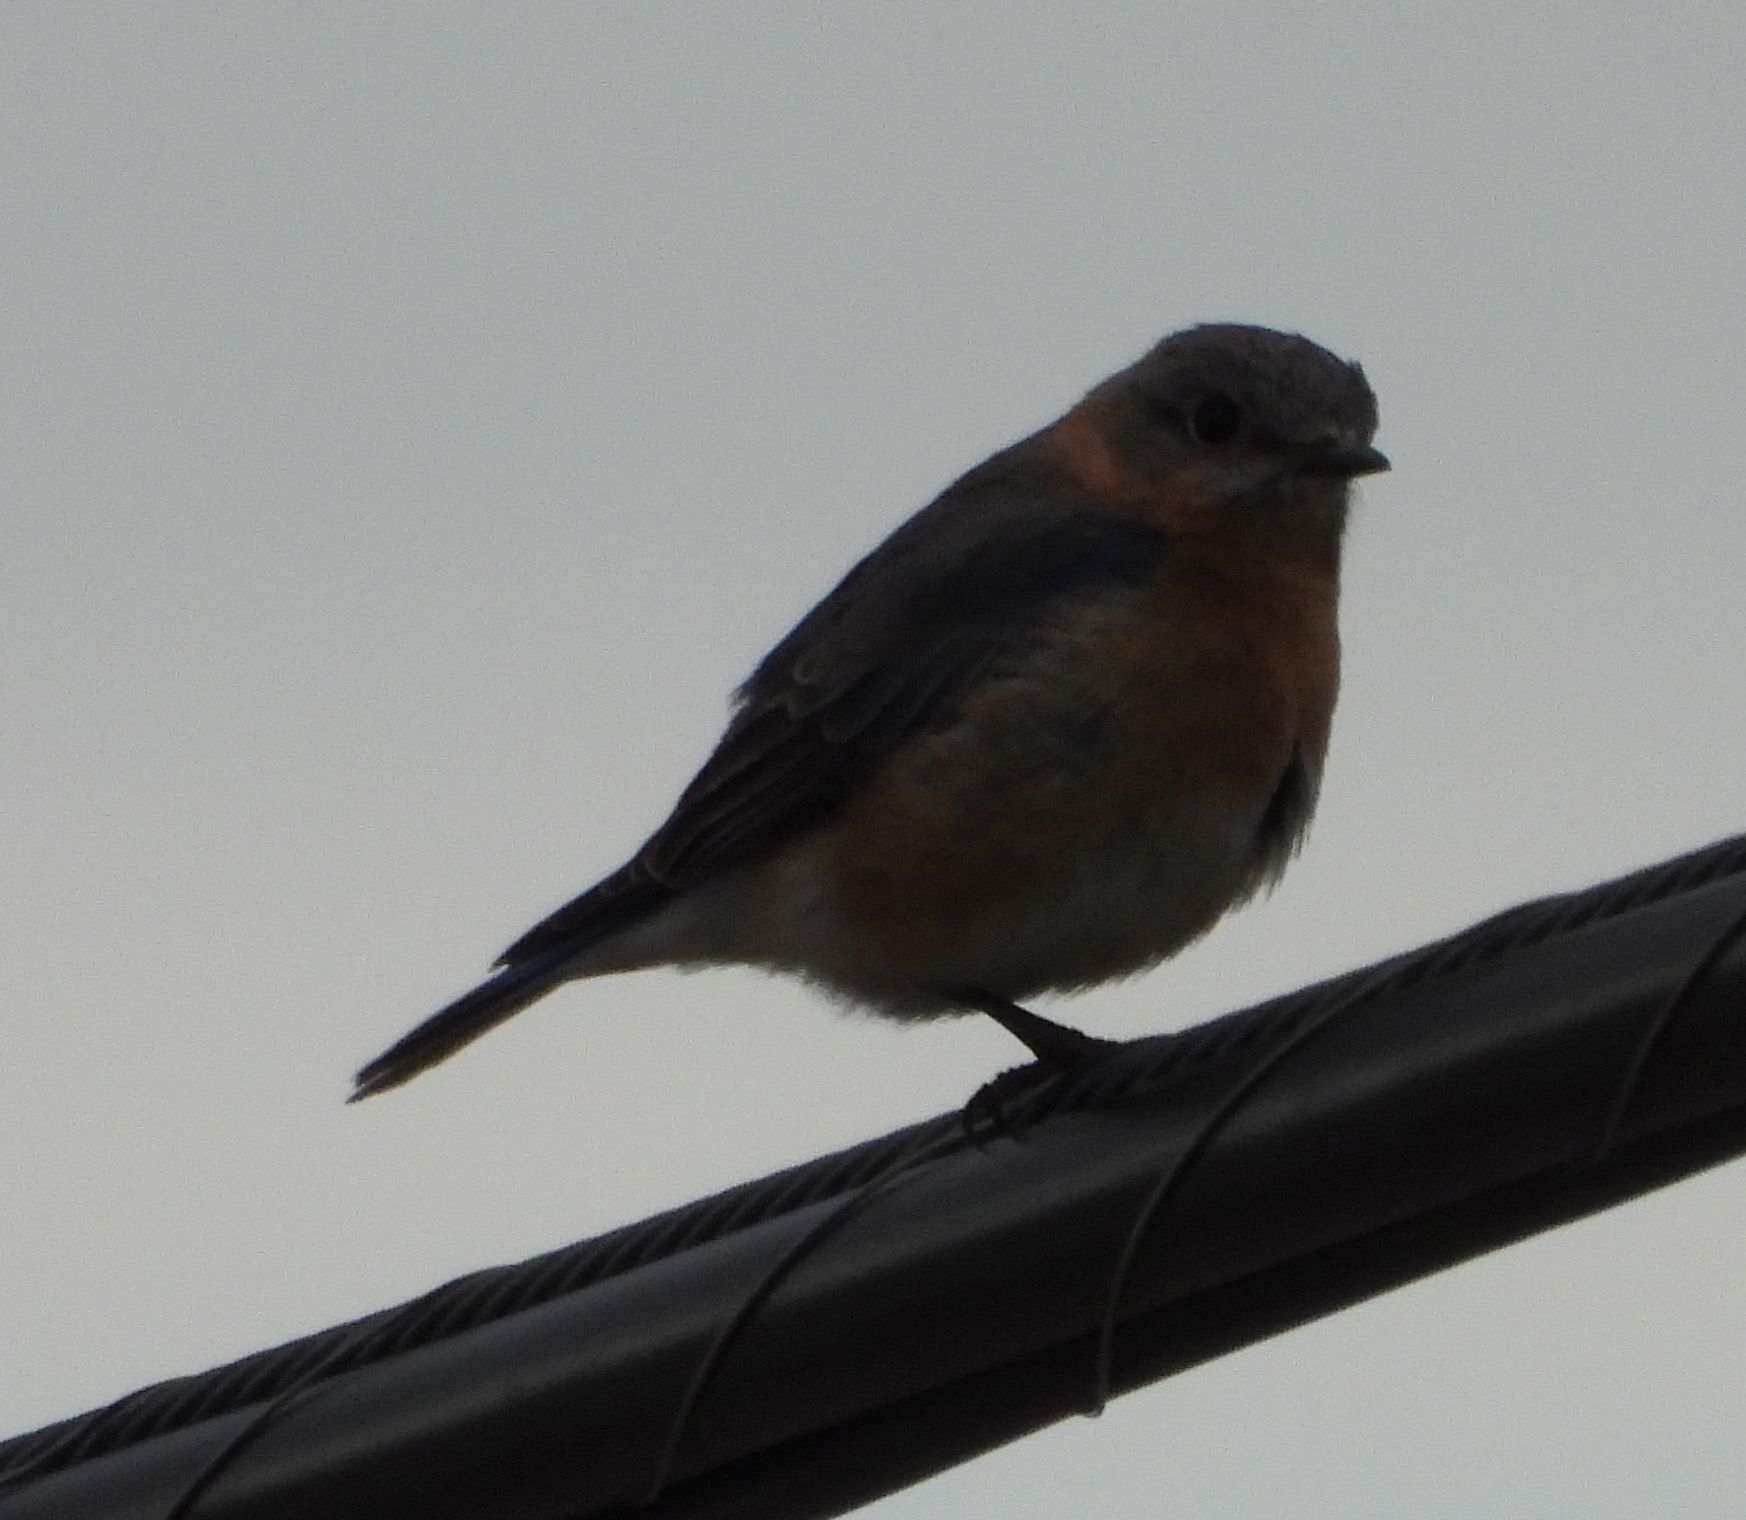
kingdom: Animalia
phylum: Chordata
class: Aves
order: Passeriformes
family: Turdidae
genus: Sialia
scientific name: Sialia sialis
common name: Eastern bluebird
